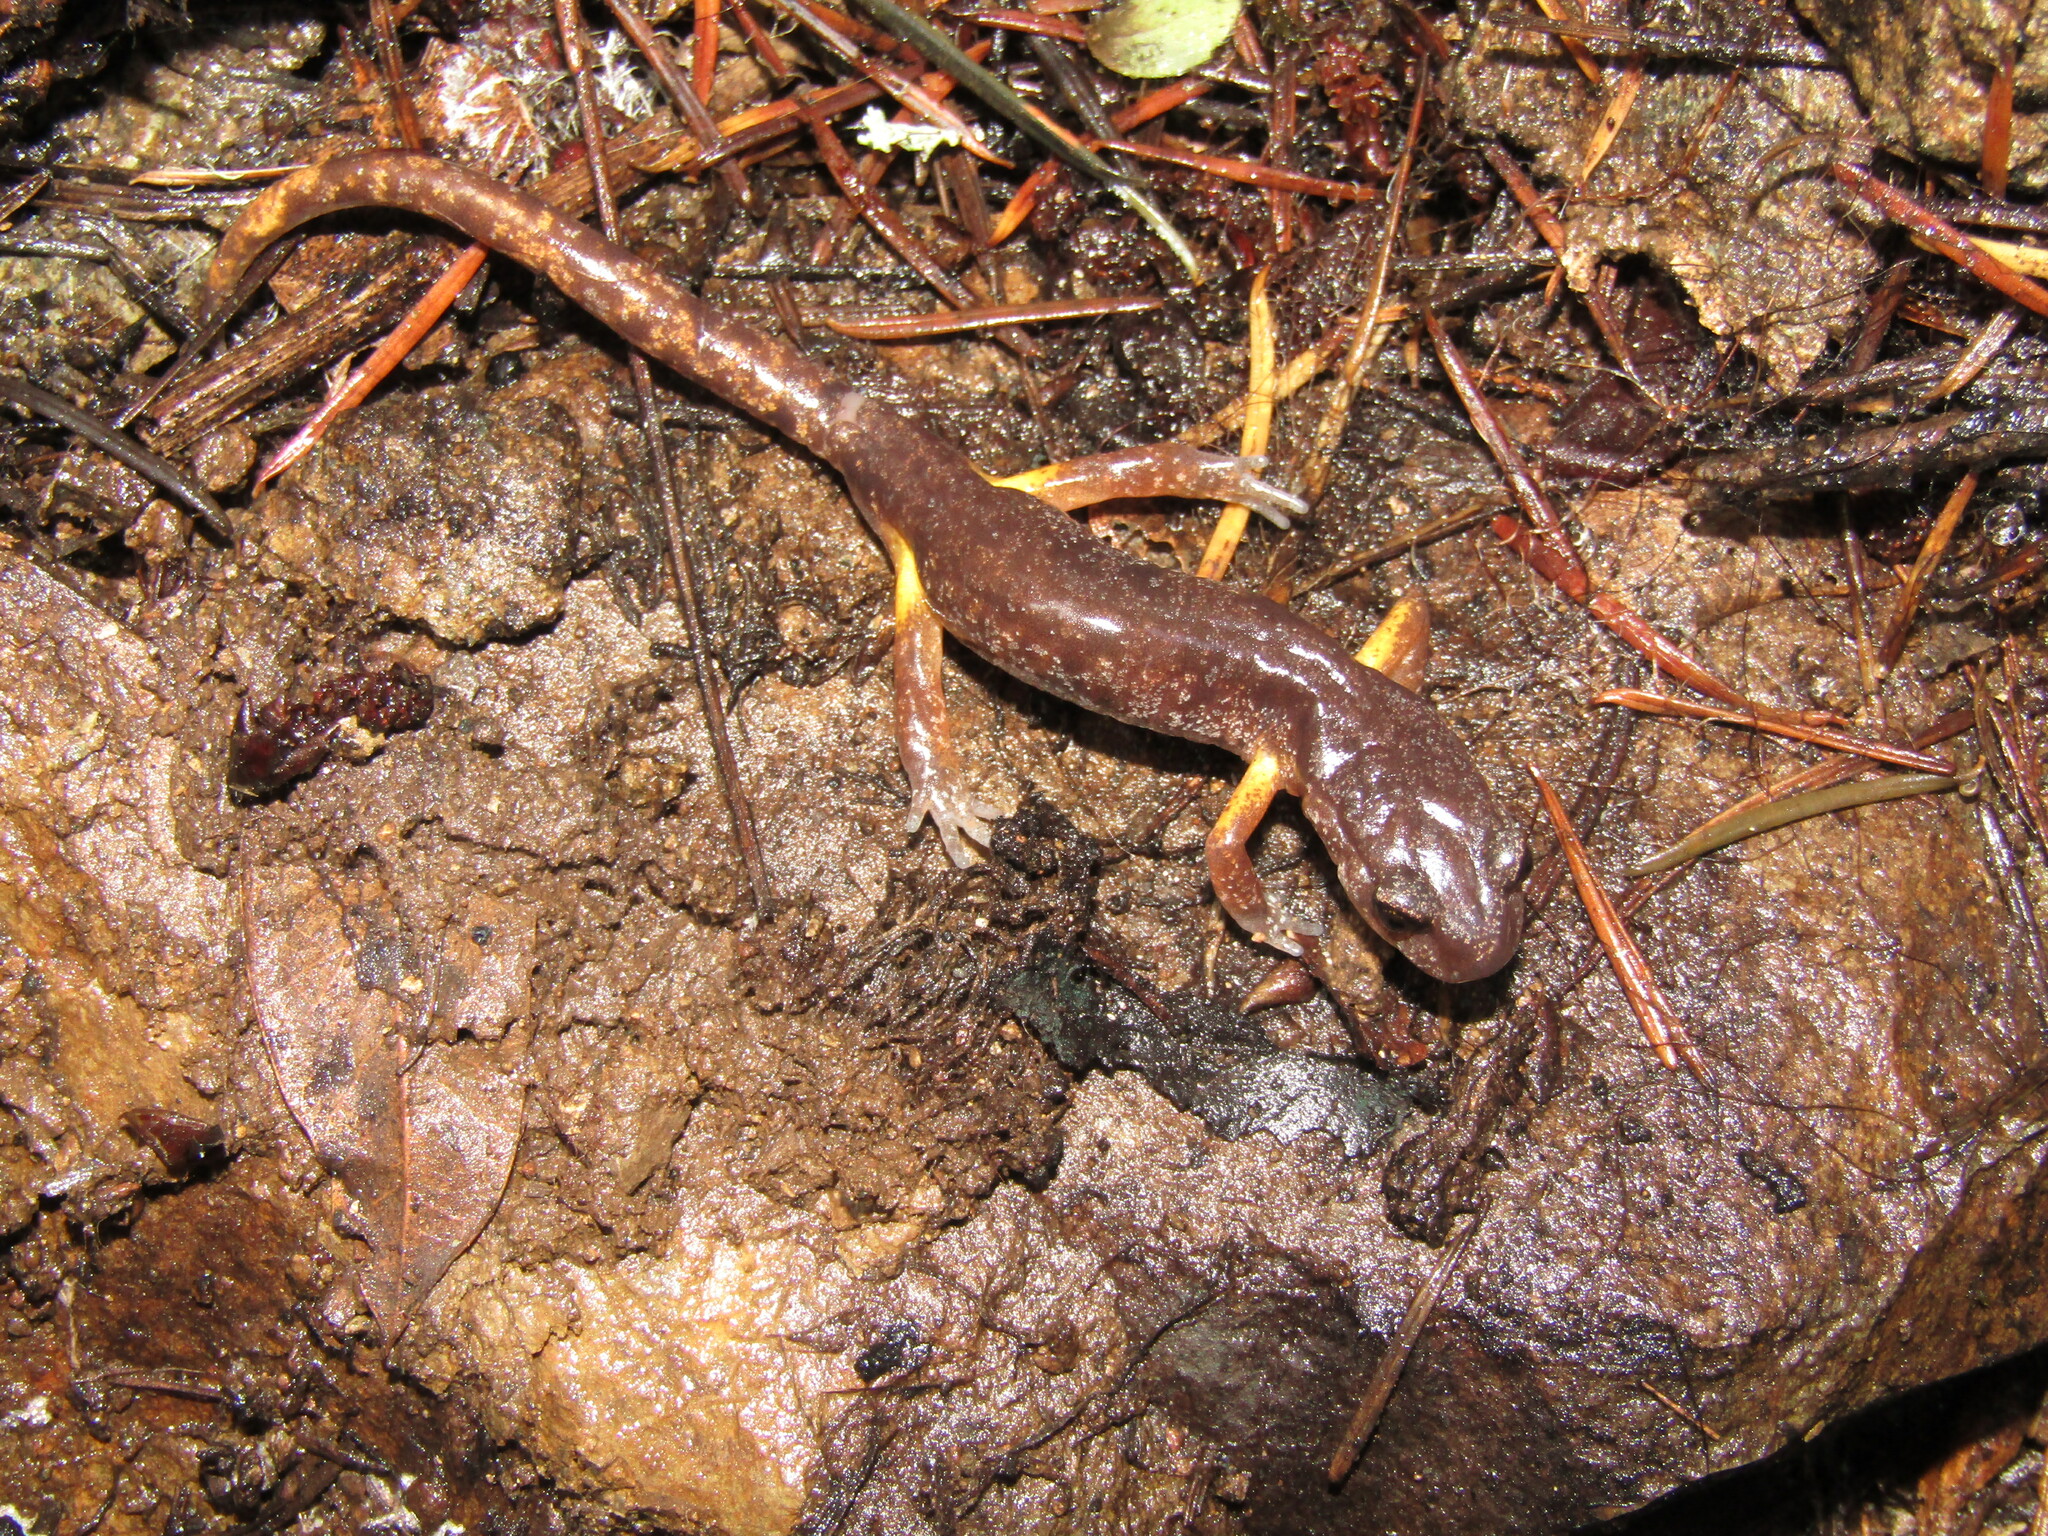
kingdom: Animalia
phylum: Chordata
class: Amphibia
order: Caudata
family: Plethodontidae
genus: Ensatina
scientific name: Ensatina eschscholtzii
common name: Ensatina
